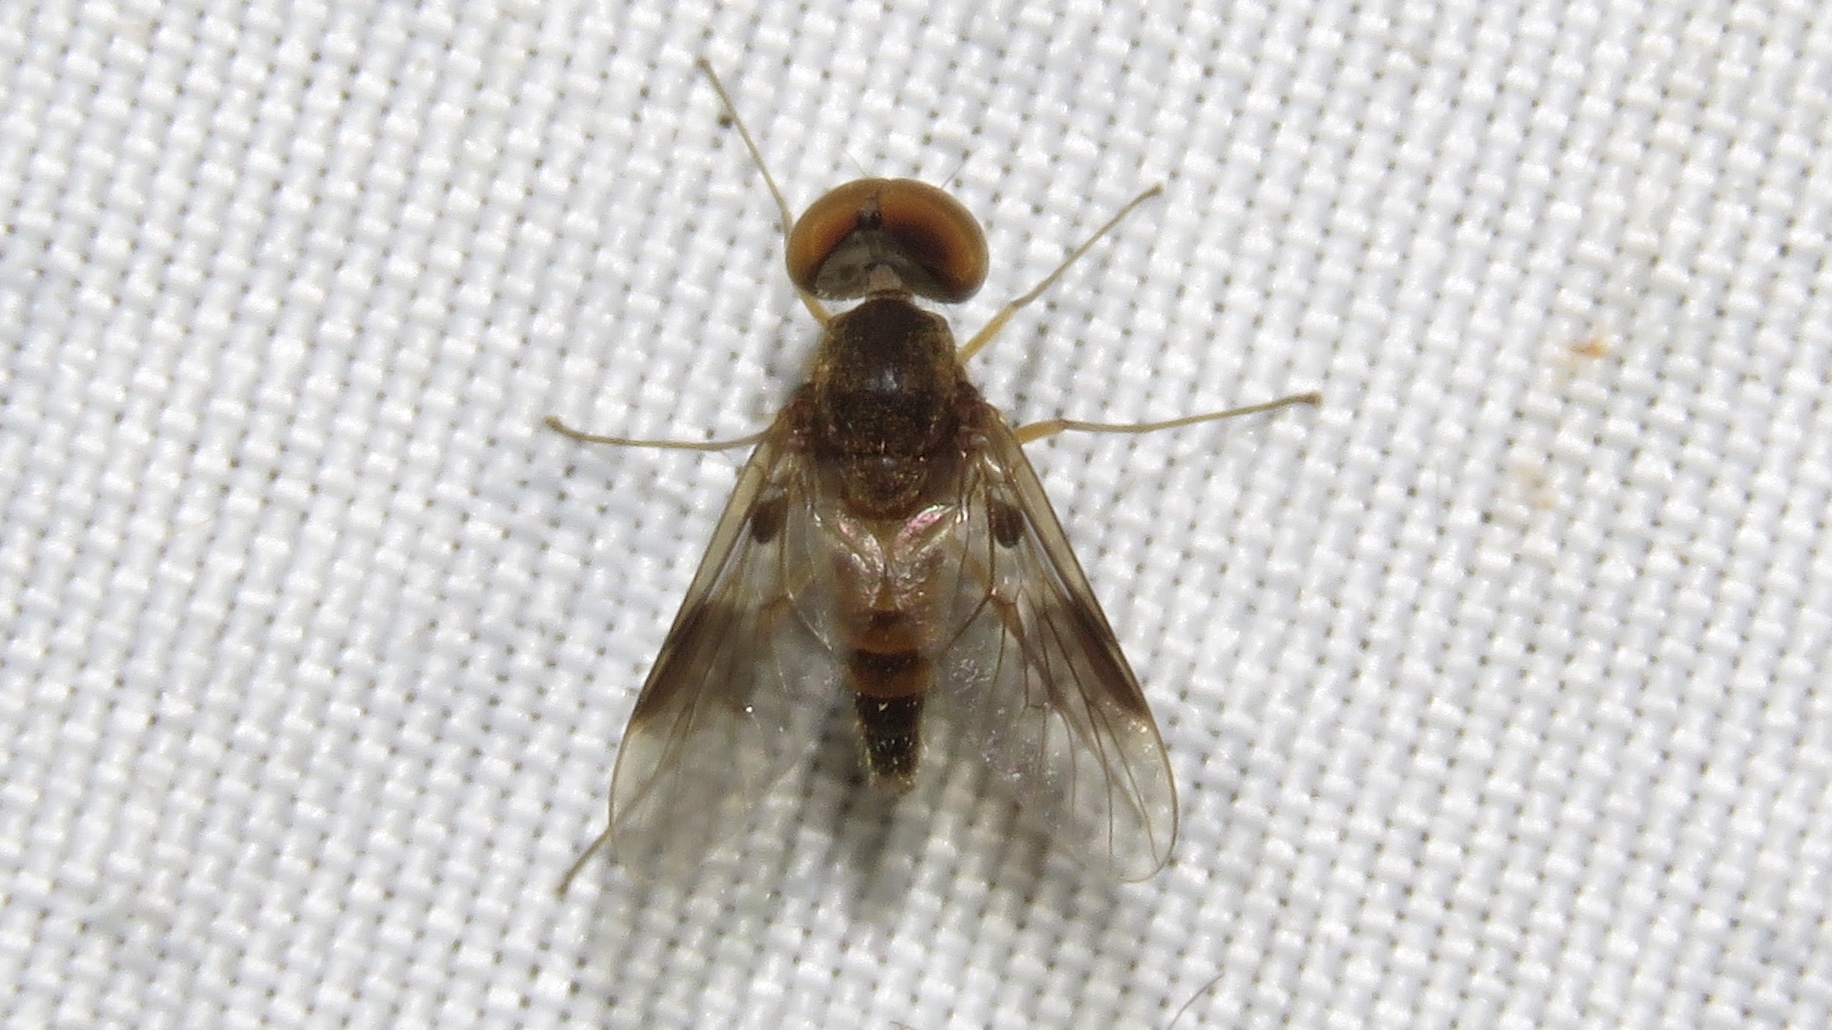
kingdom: Animalia
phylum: Arthropoda
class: Insecta
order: Diptera
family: Rhagionidae
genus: Chrysopilus
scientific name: Chrysopilus quadratus
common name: Quadrate snipe fly
